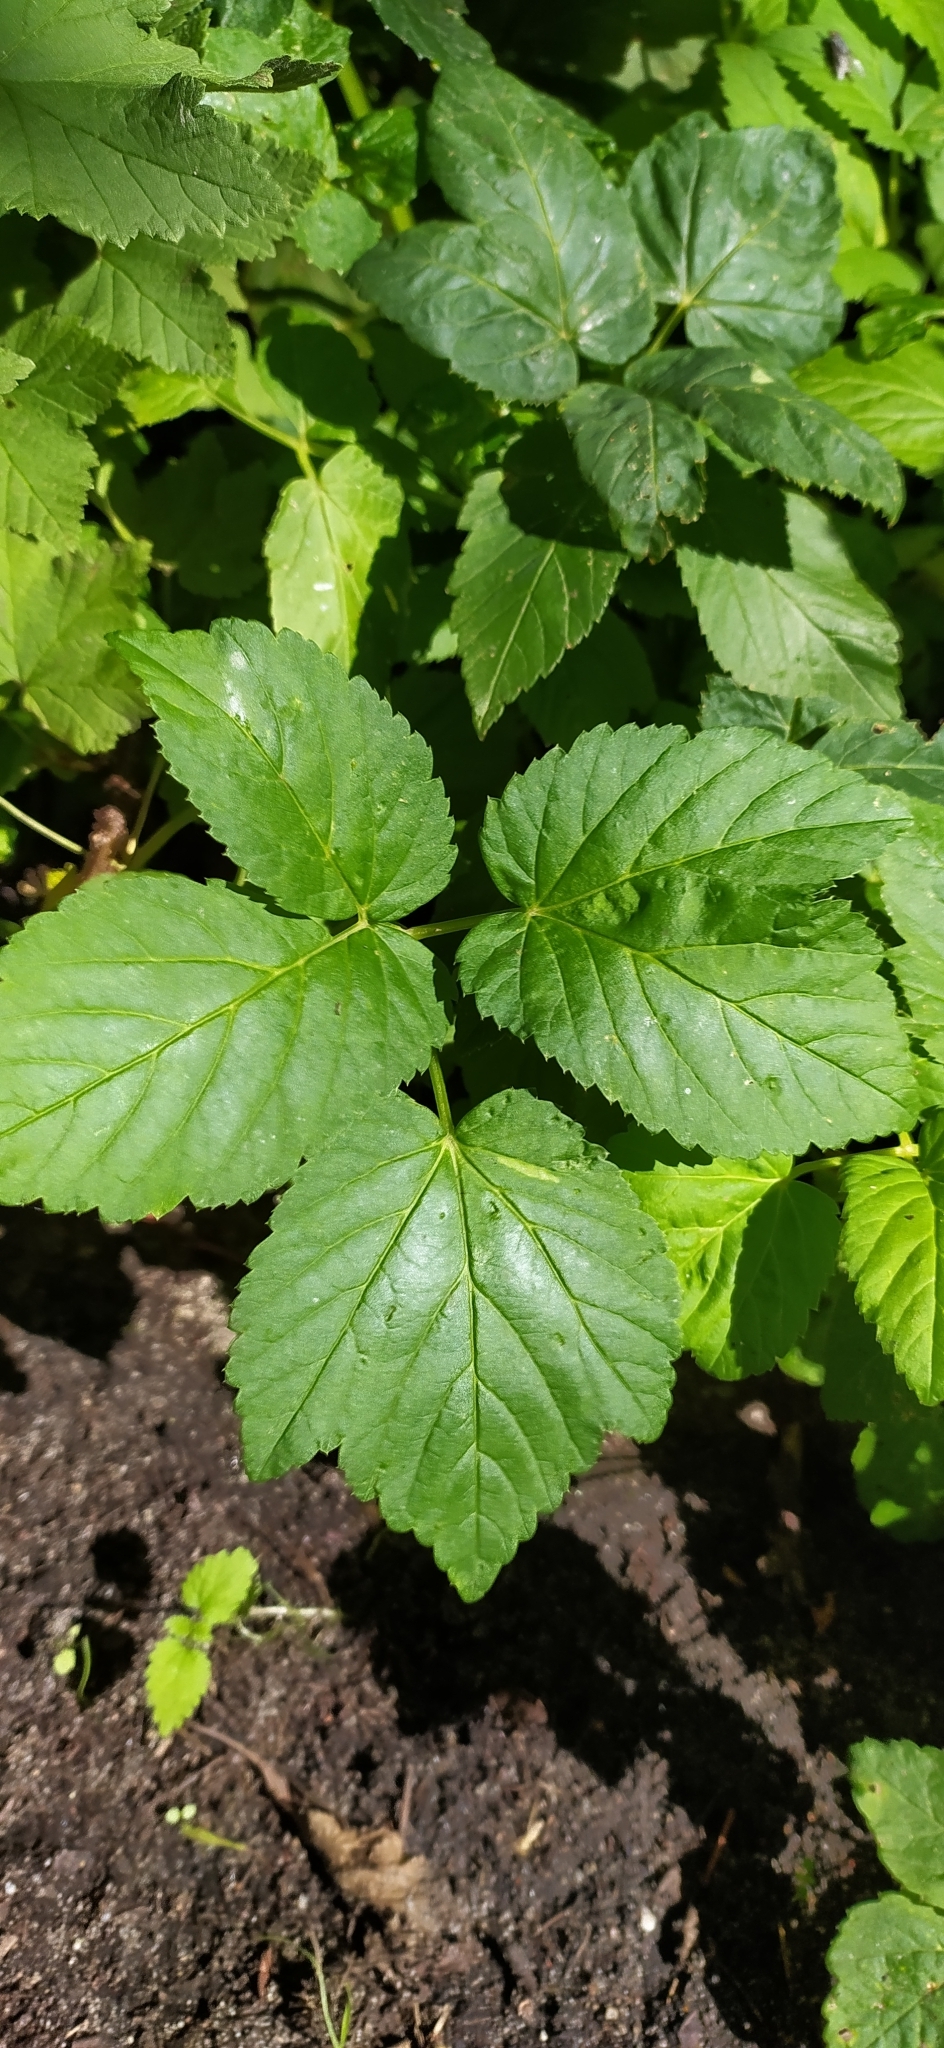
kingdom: Plantae
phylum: Tracheophyta
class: Magnoliopsida
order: Apiales
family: Apiaceae
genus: Aegopodium
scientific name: Aegopodium podagraria
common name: Ground-elder
